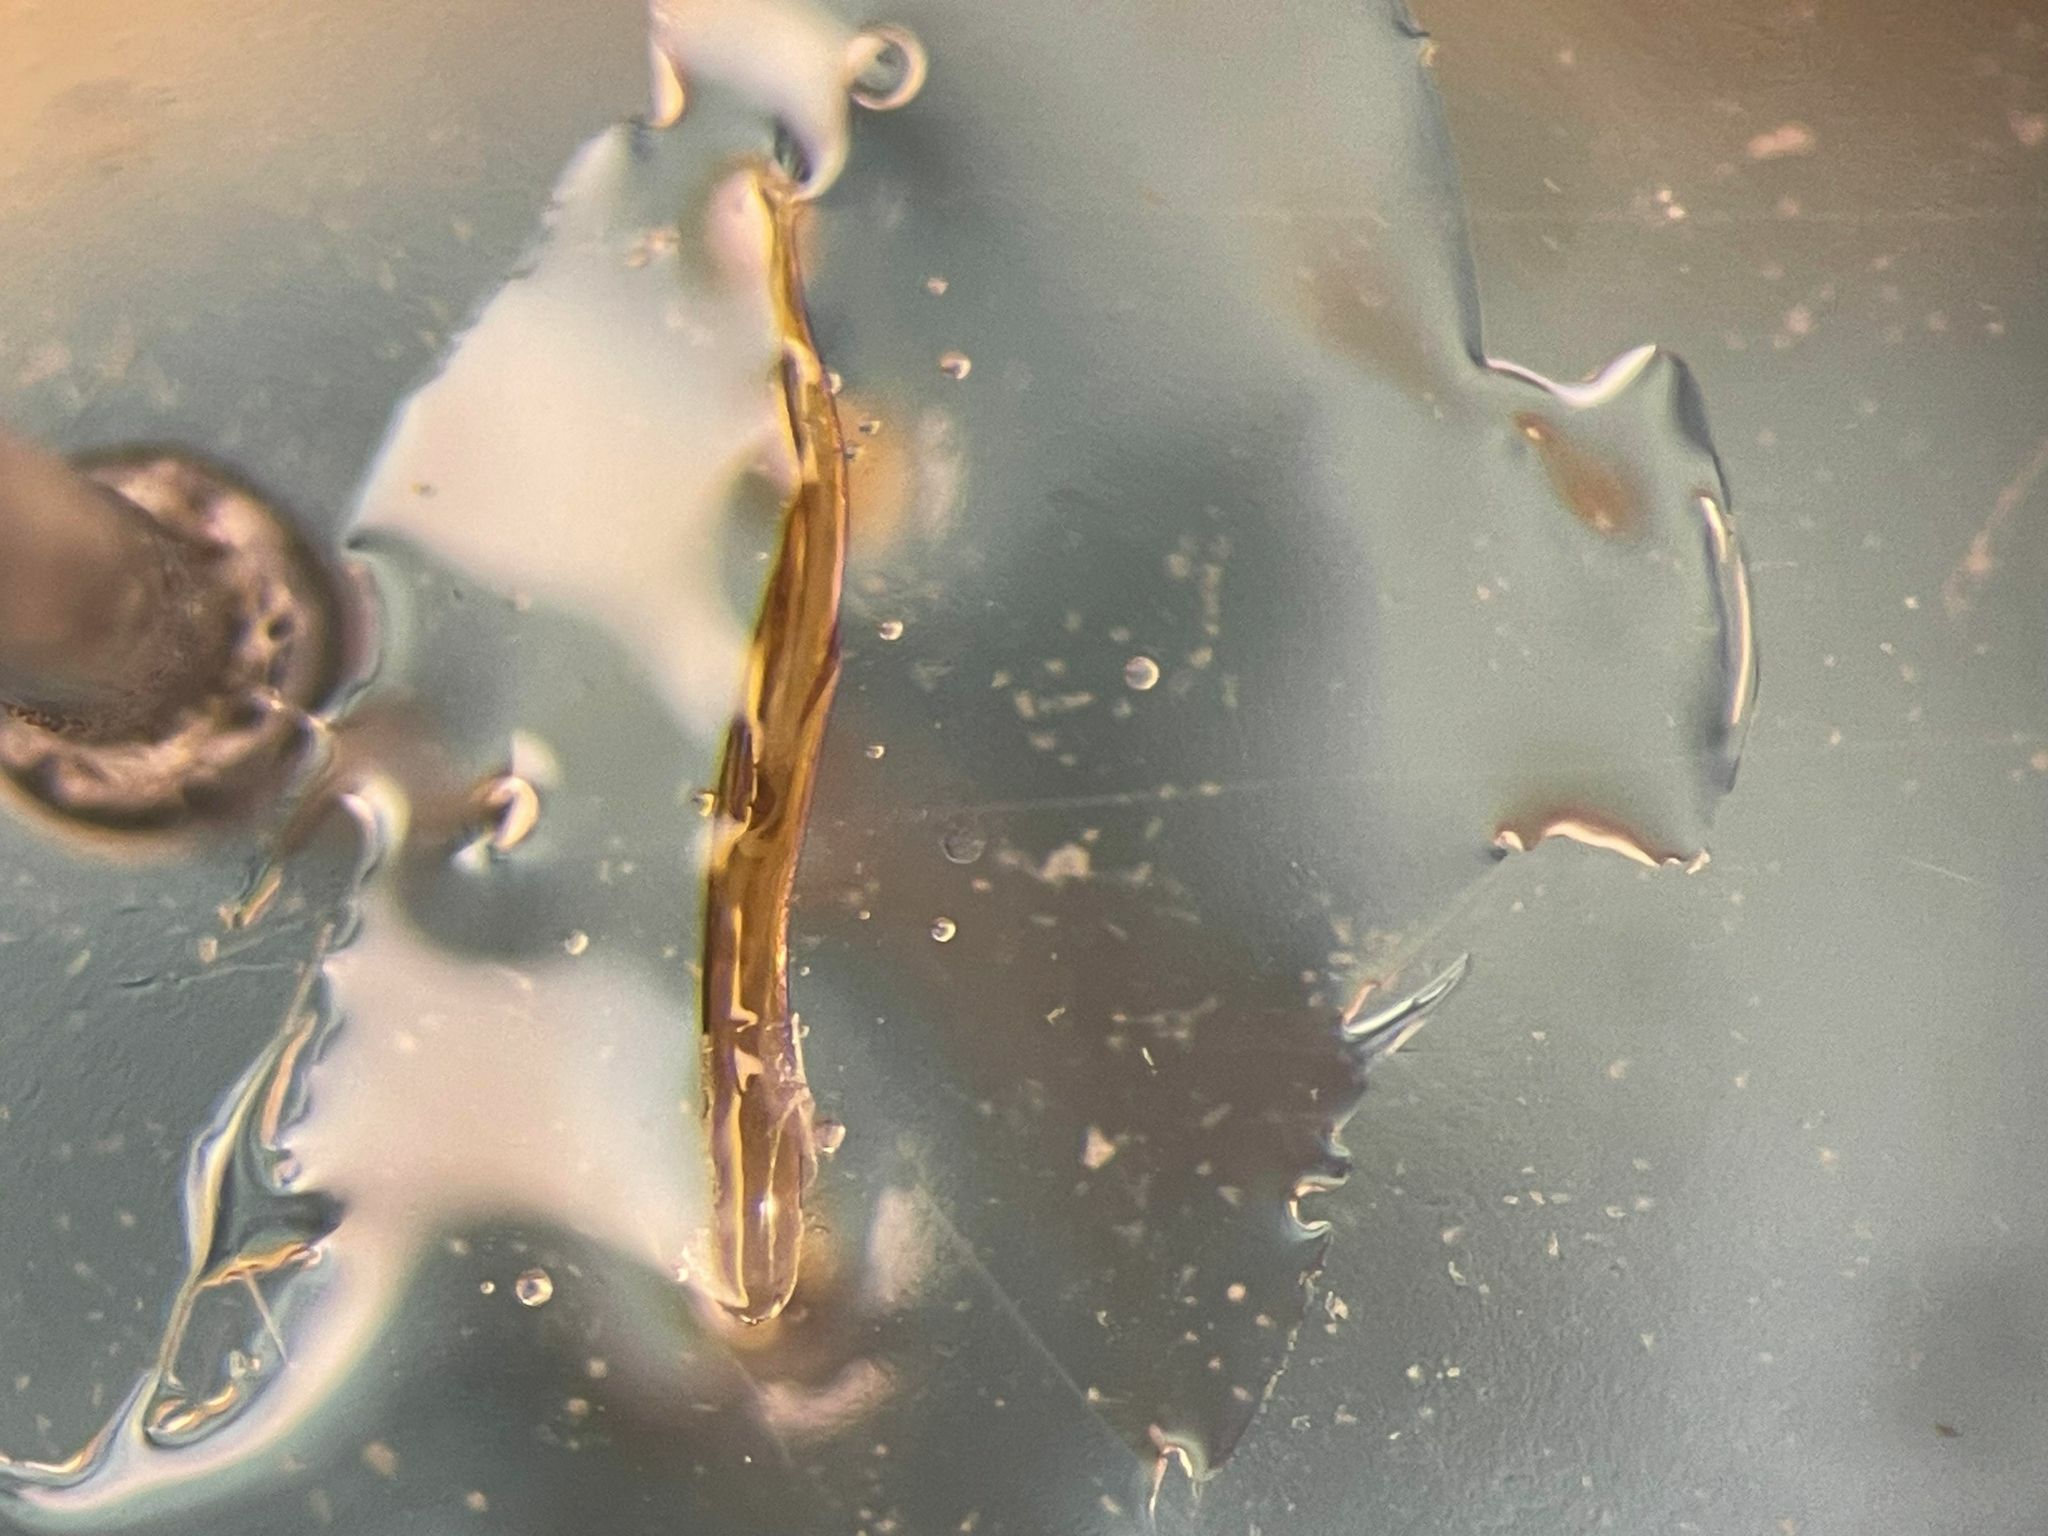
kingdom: Animalia
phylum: Arthropoda
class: Insecta
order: Coleoptera
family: Aderidae
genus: Elonus
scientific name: Elonus basalis
